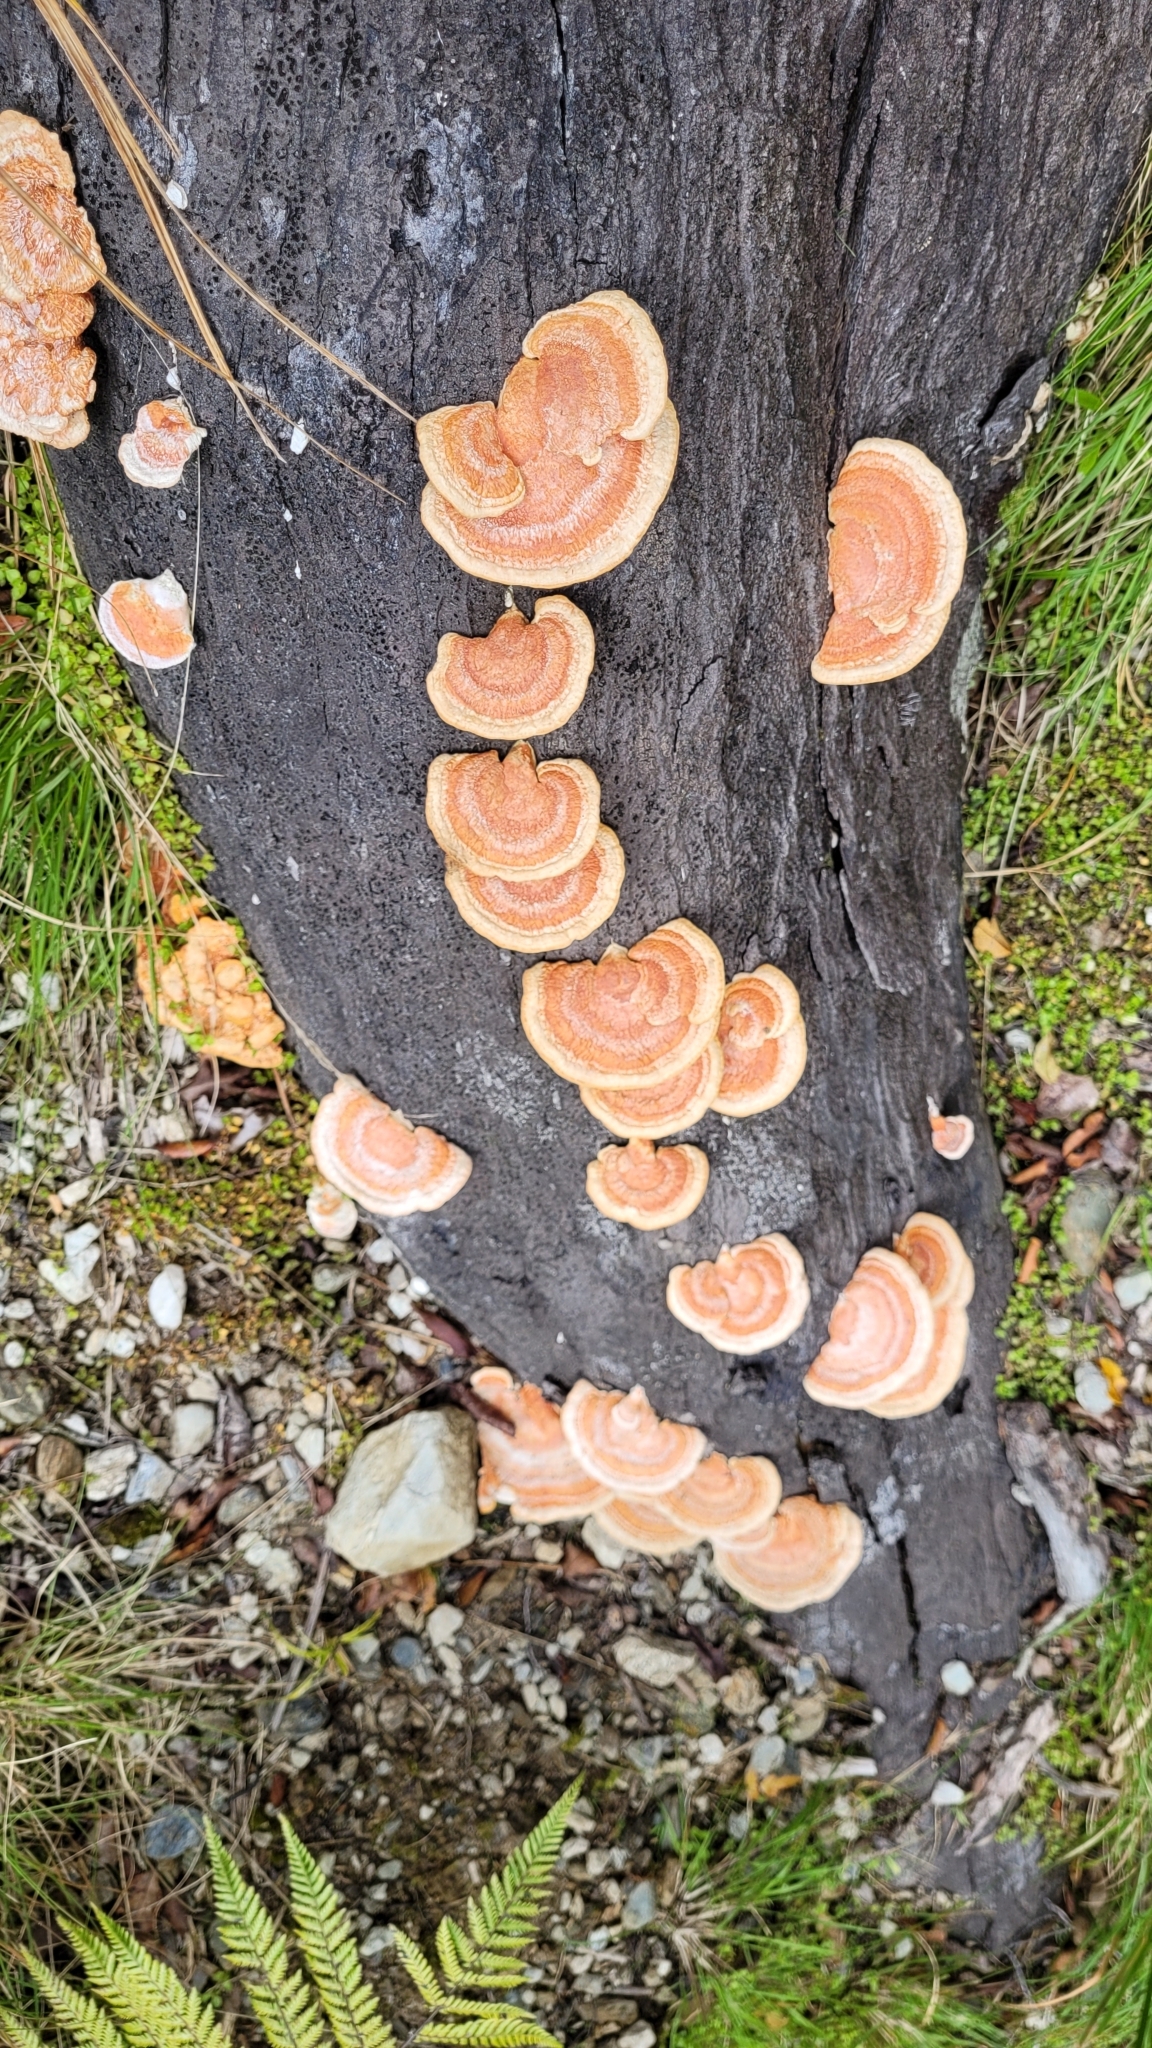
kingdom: Fungi
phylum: Basidiomycota
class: Agaricomycetes
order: Polyporales
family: Polyporaceae
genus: Trametes
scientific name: Trametes coccinea
